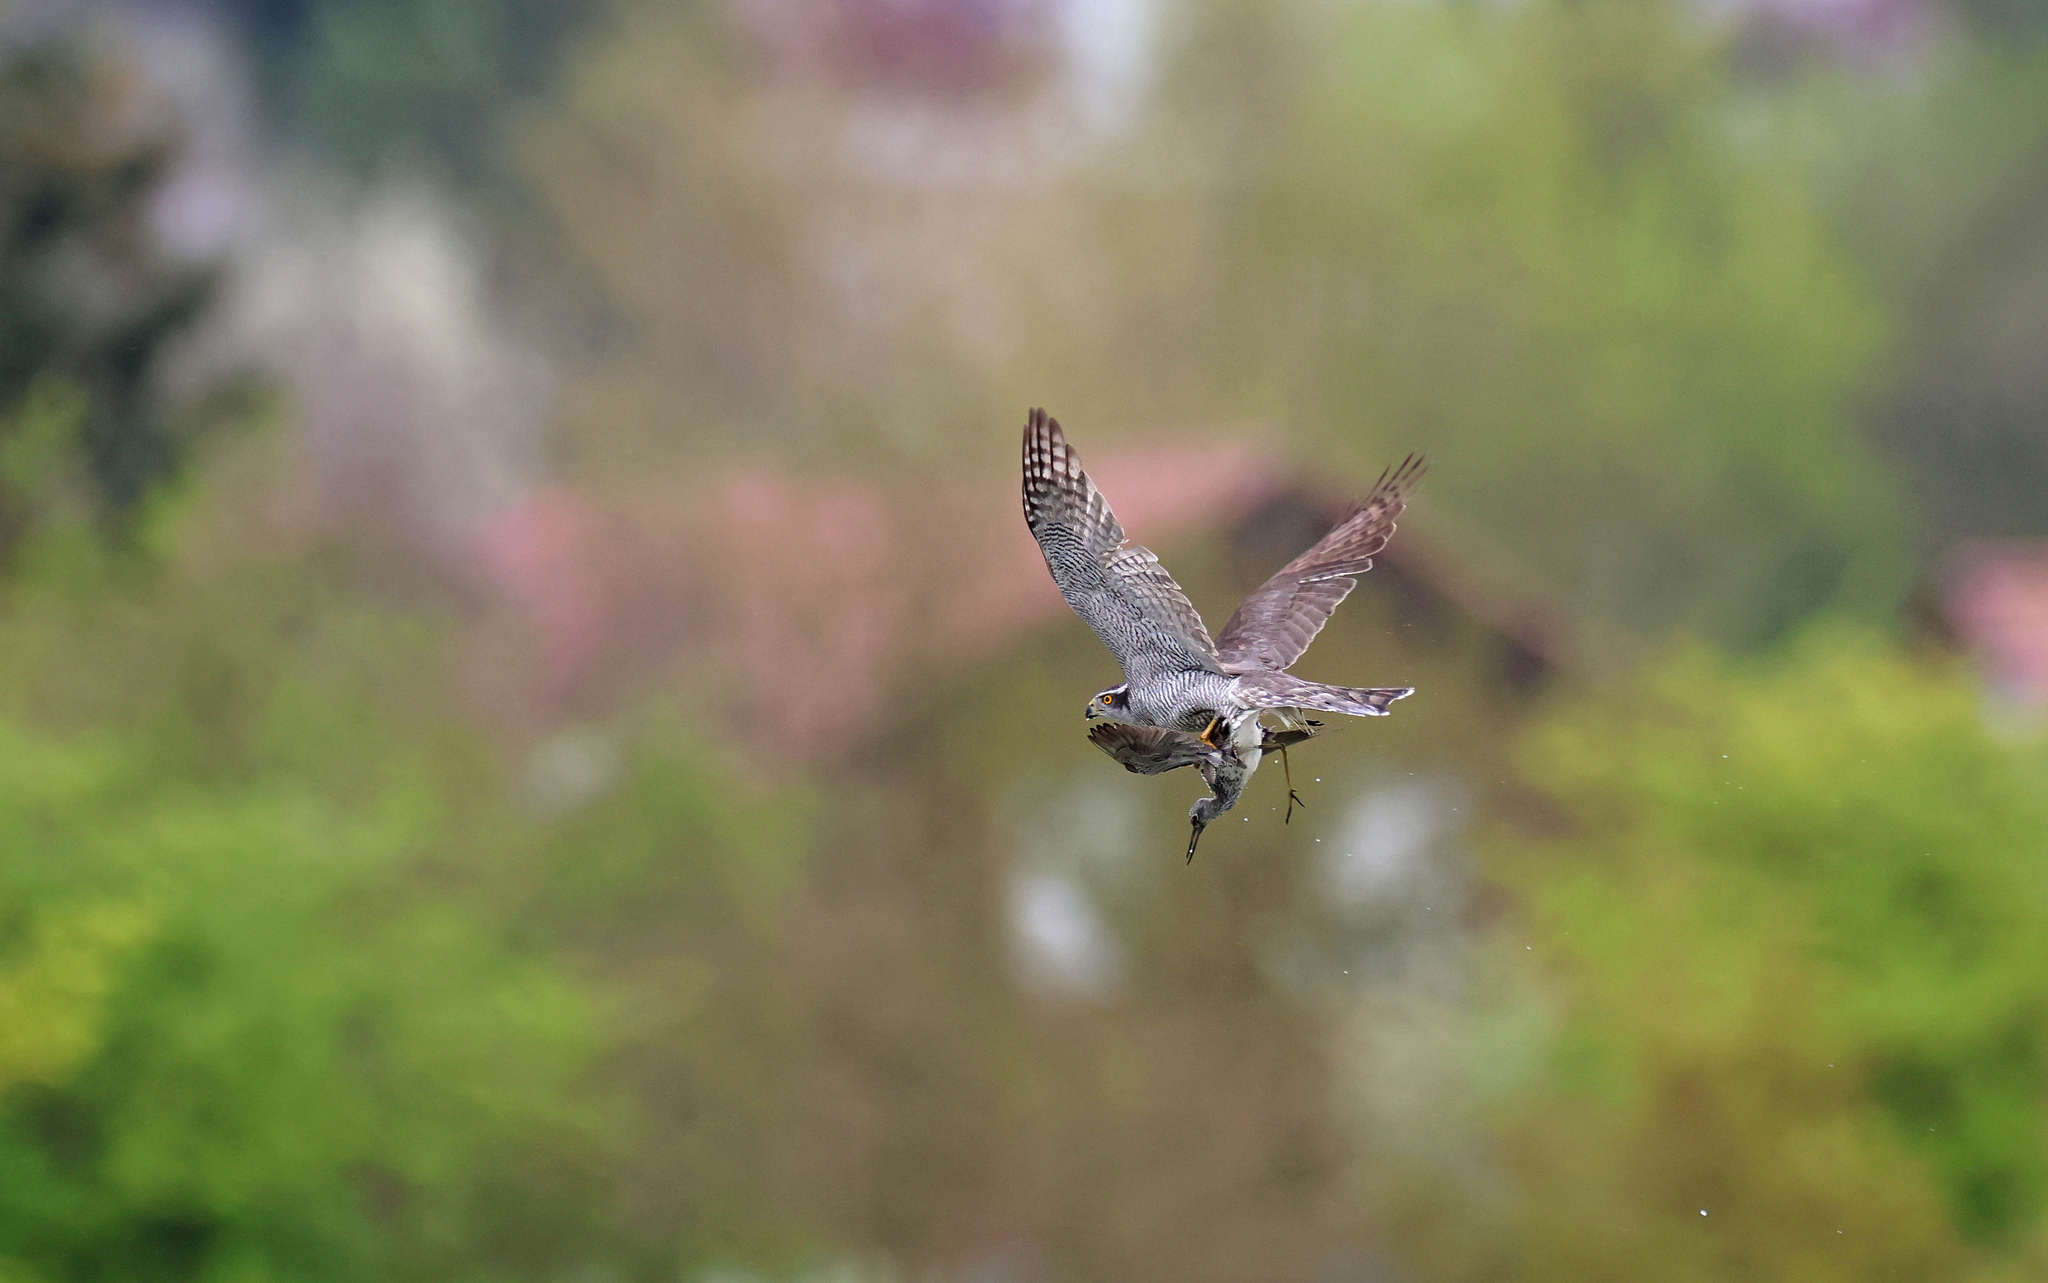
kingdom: Animalia
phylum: Chordata
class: Aves
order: Accipitriformes
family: Accipitridae
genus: Accipiter
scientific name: Accipiter gentilis
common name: Northern goshawk
